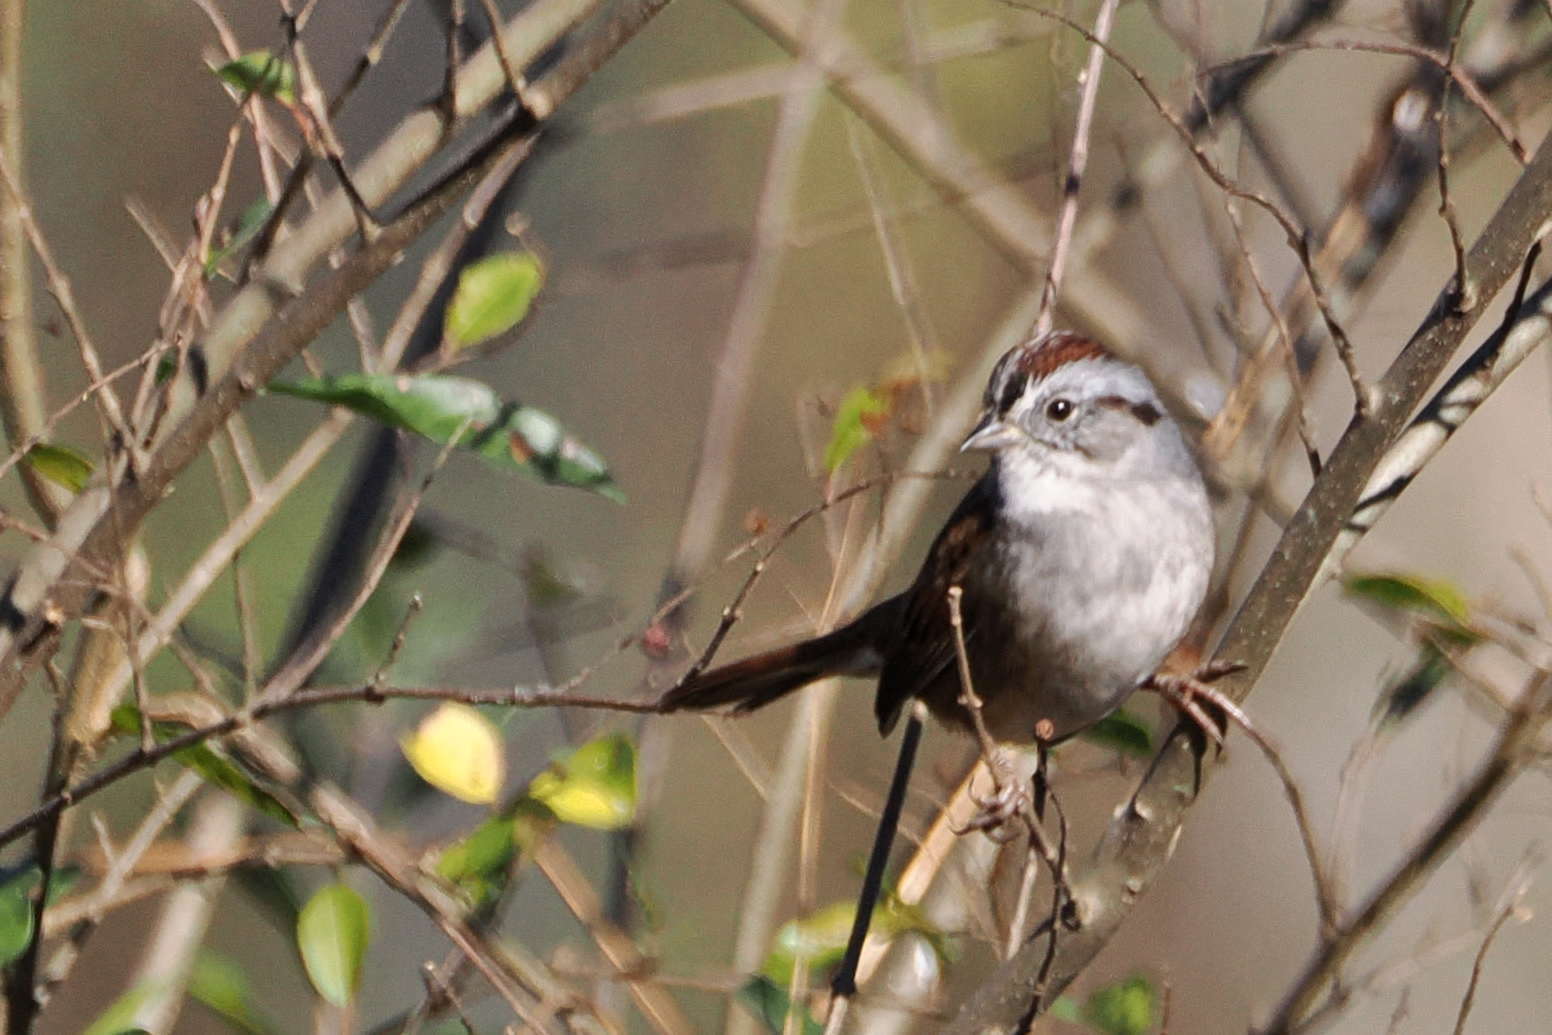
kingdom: Animalia
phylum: Chordata
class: Aves
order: Passeriformes
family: Passerellidae
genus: Melospiza
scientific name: Melospiza georgiana
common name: Swamp sparrow
